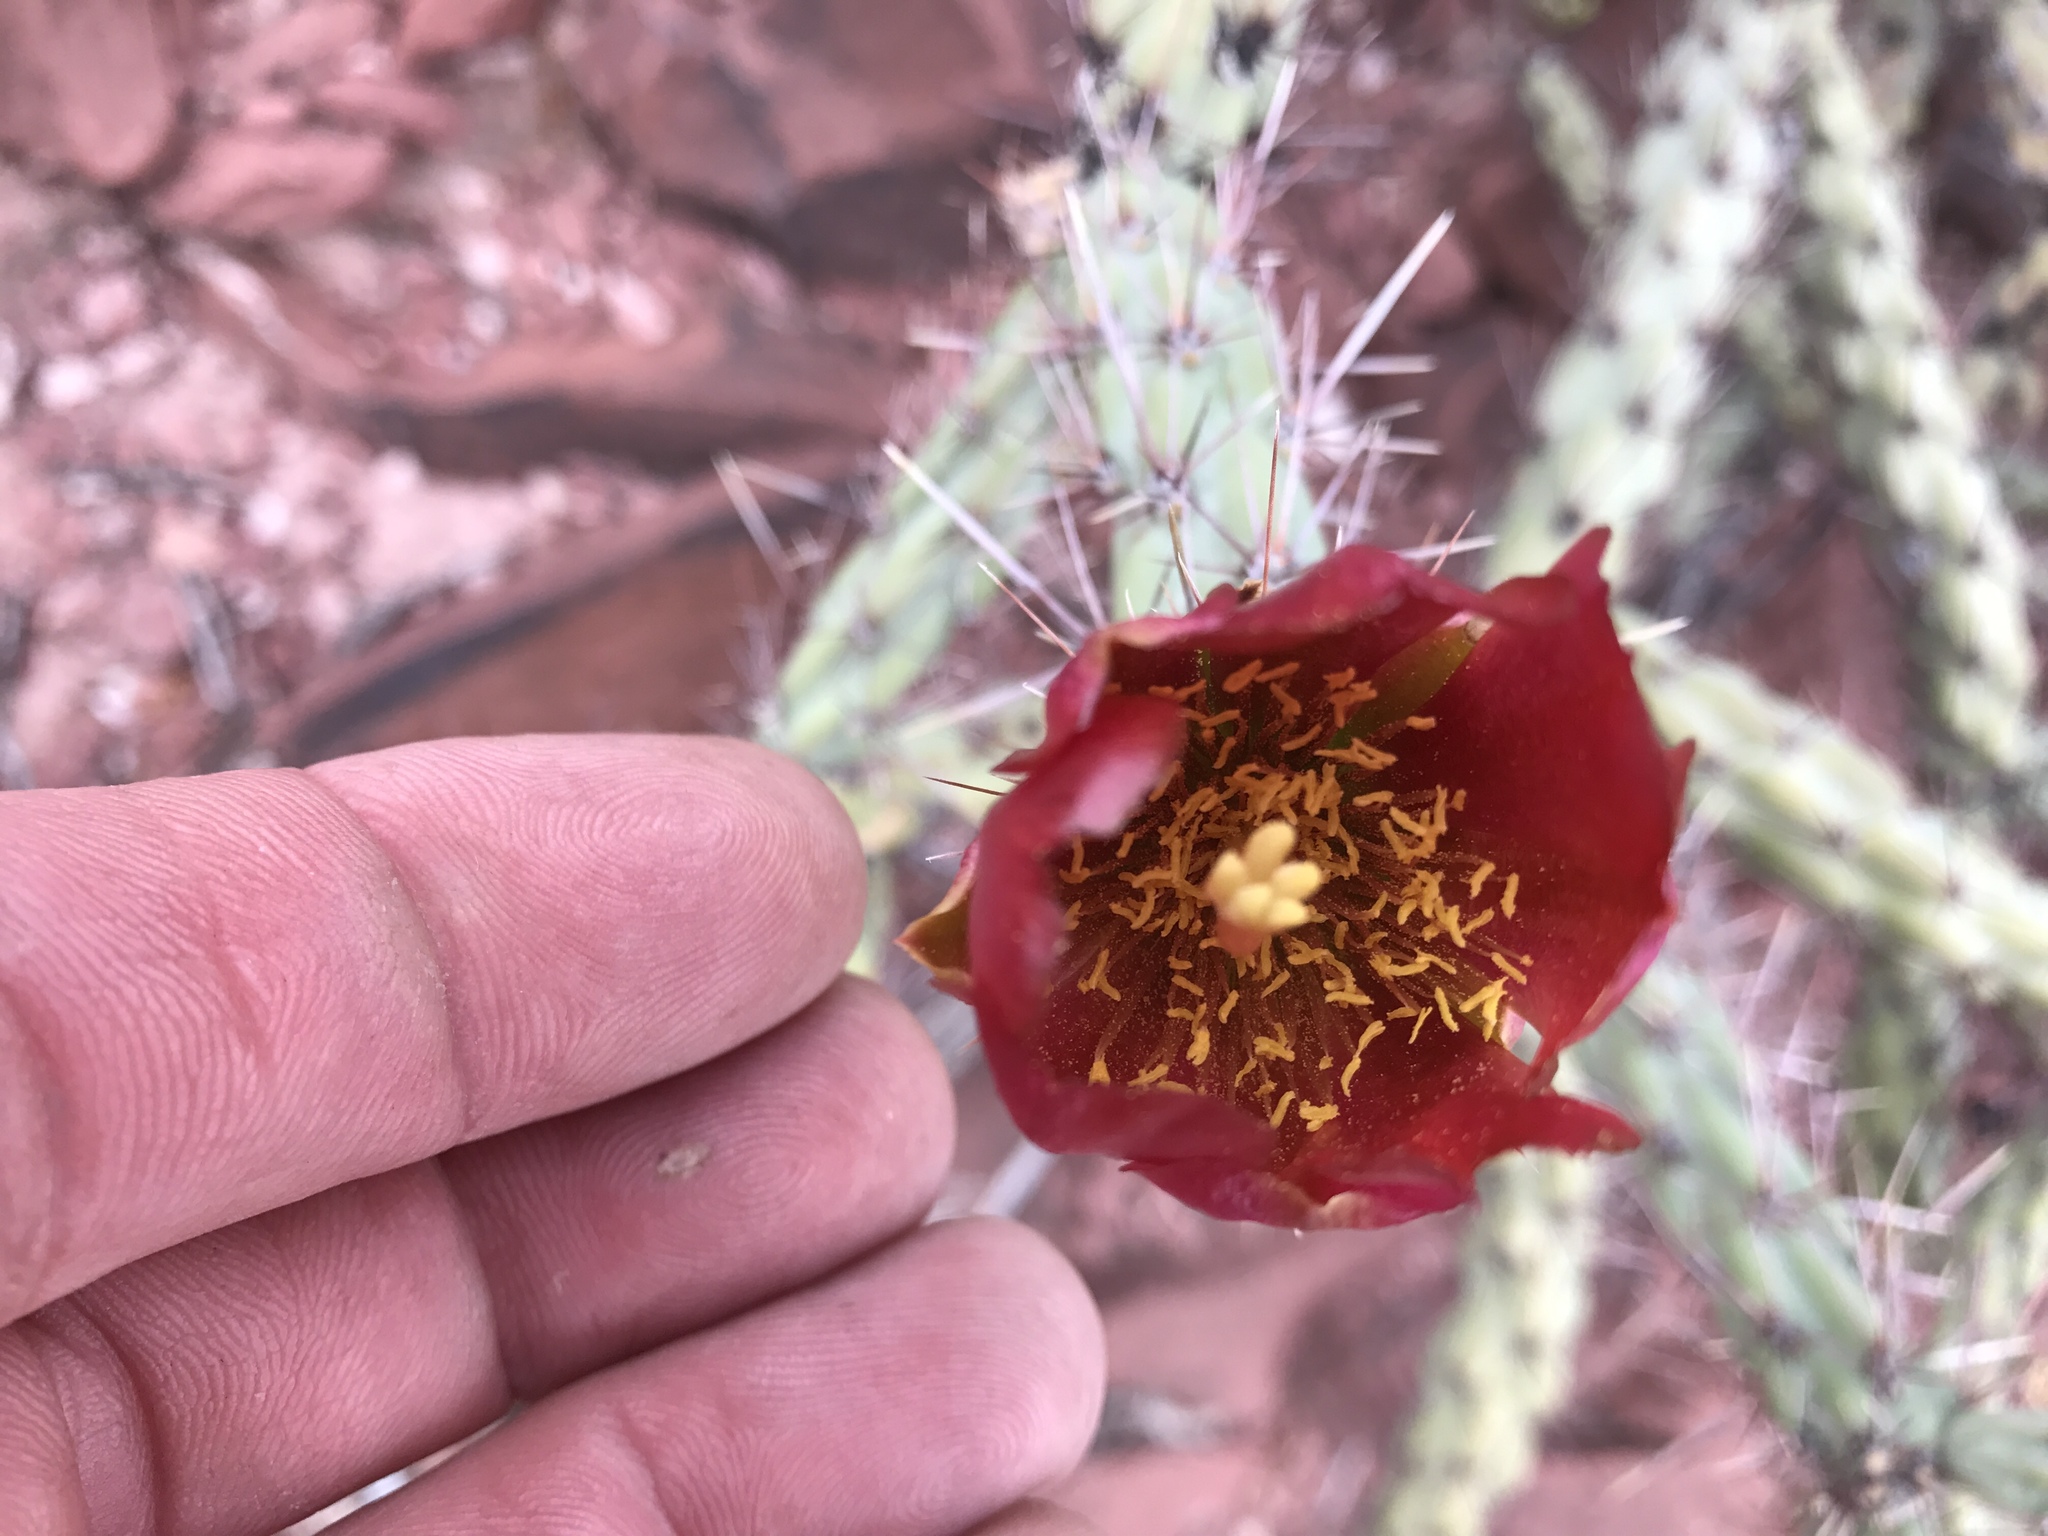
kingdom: Plantae
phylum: Tracheophyta
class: Magnoliopsida
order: Caryophyllales
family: Cactaceae
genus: Cylindropuntia
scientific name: Cylindropuntia thurberi
